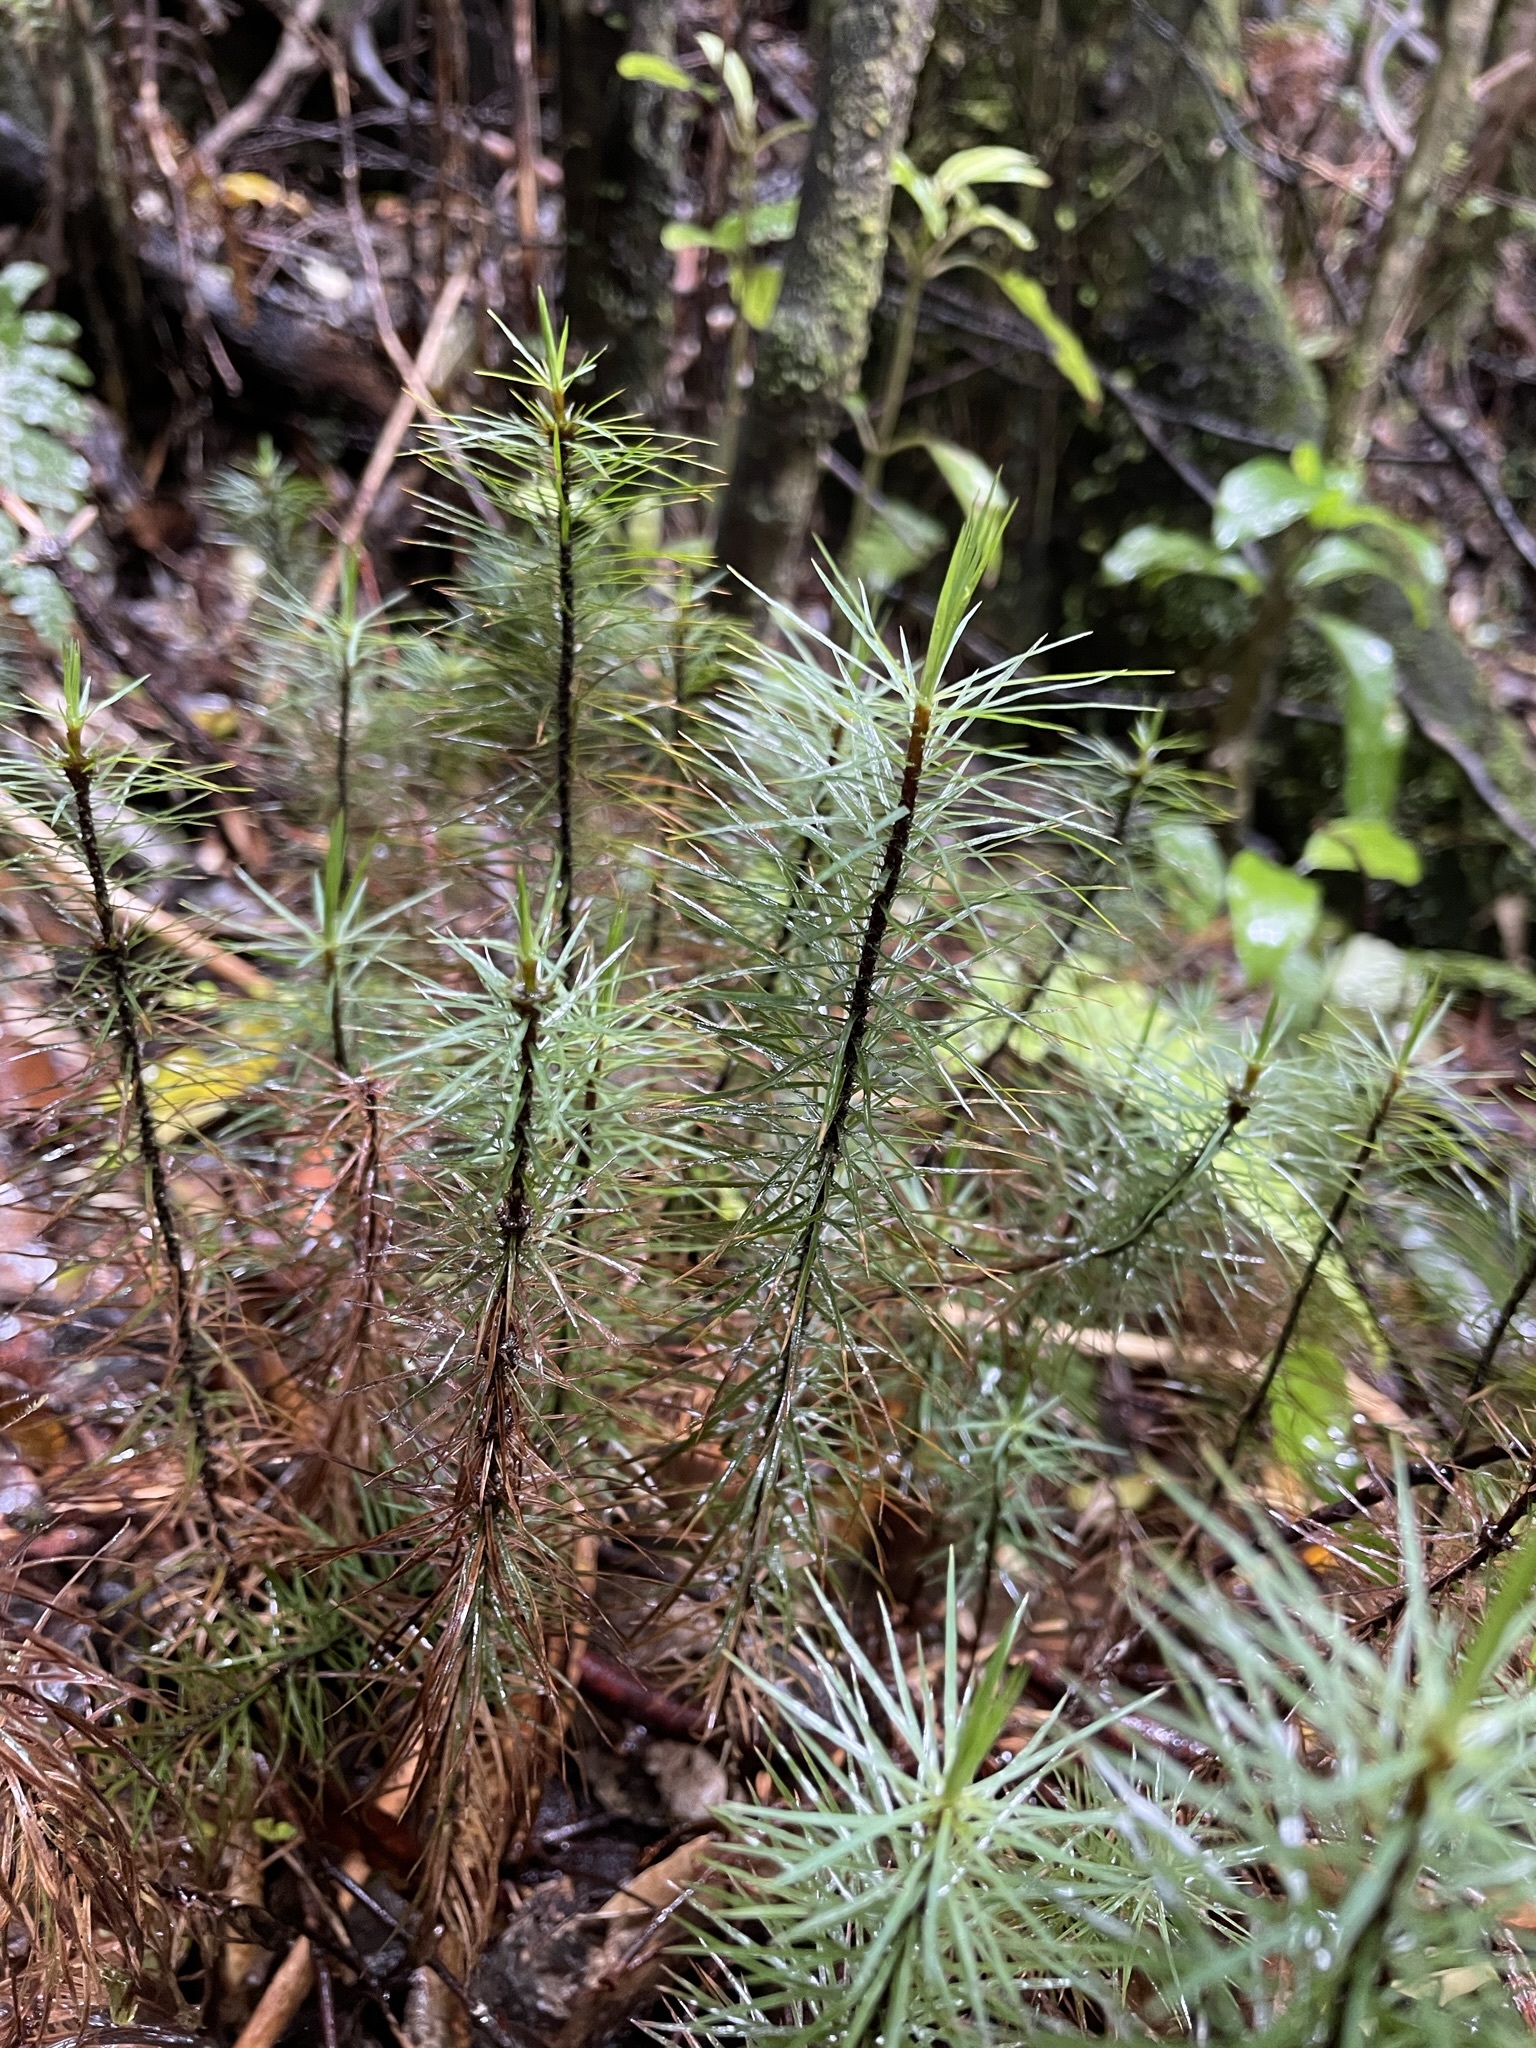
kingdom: Plantae
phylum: Bryophyta
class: Polytrichopsida
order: Polytrichales
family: Polytrichaceae
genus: Dawsonia
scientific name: Dawsonia superba
